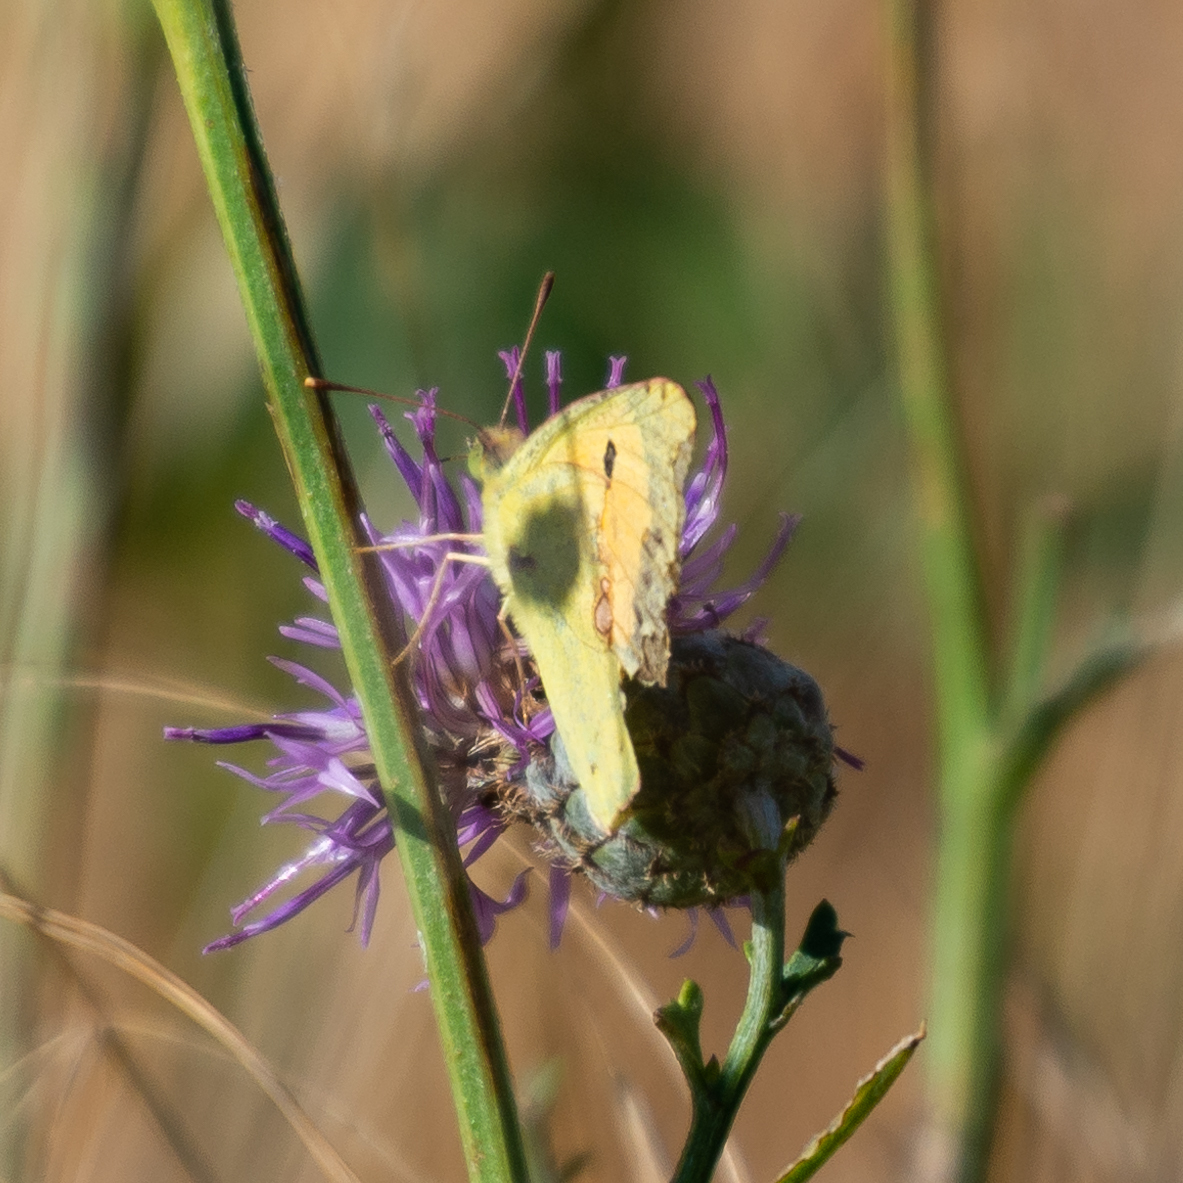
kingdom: Animalia
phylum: Arthropoda
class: Insecta
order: Lepidoptera
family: Pieridae
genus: Colias
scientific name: Colias croceus
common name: Clouded yellow
